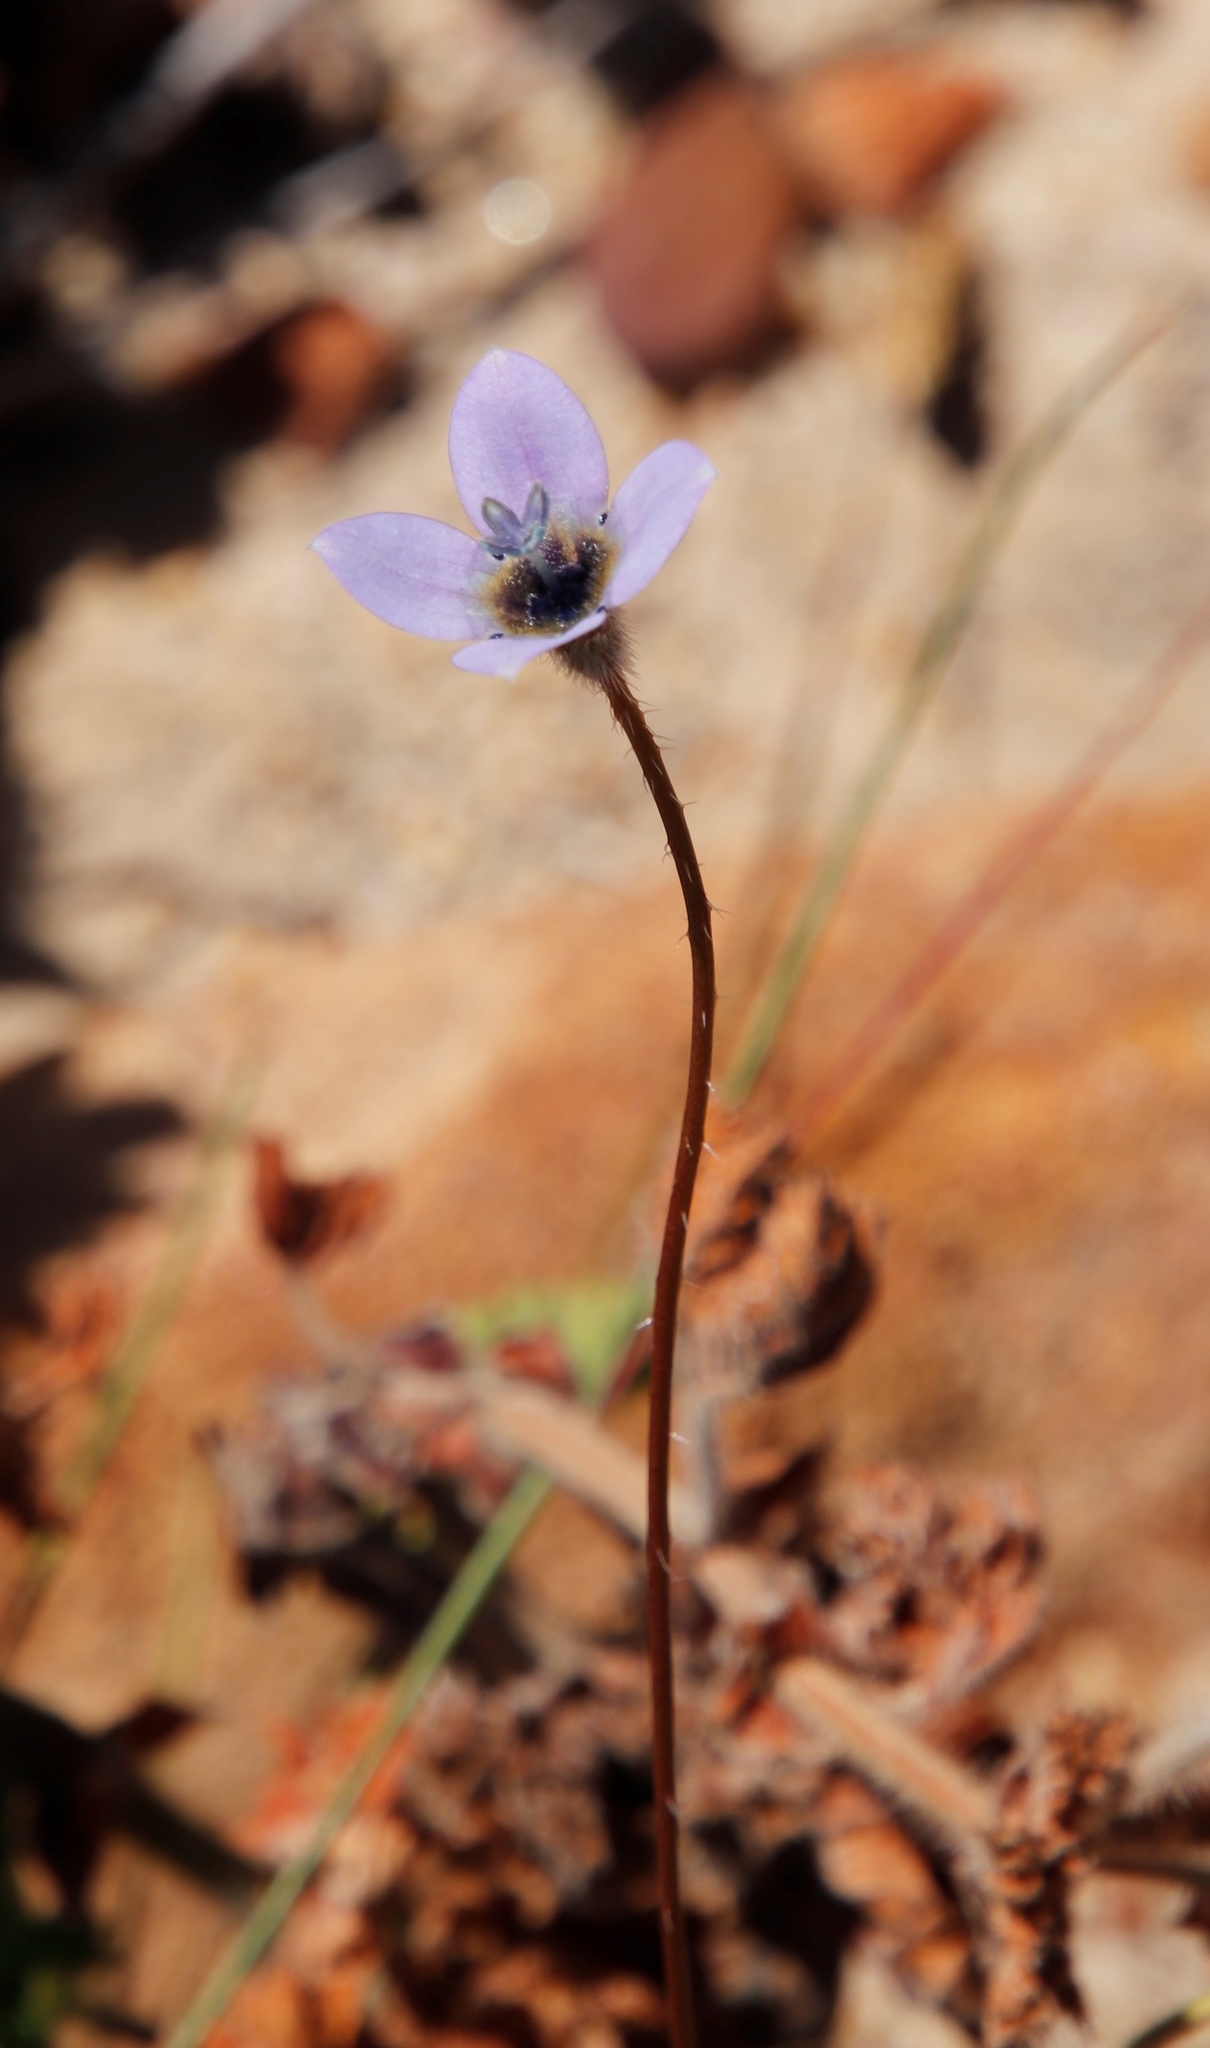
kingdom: Plantae
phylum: Tracheophyta
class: Magnoliopsida
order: Asterales
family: Campanulaceae
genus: Wahlenbergia
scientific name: Wahlenbergia capensis
